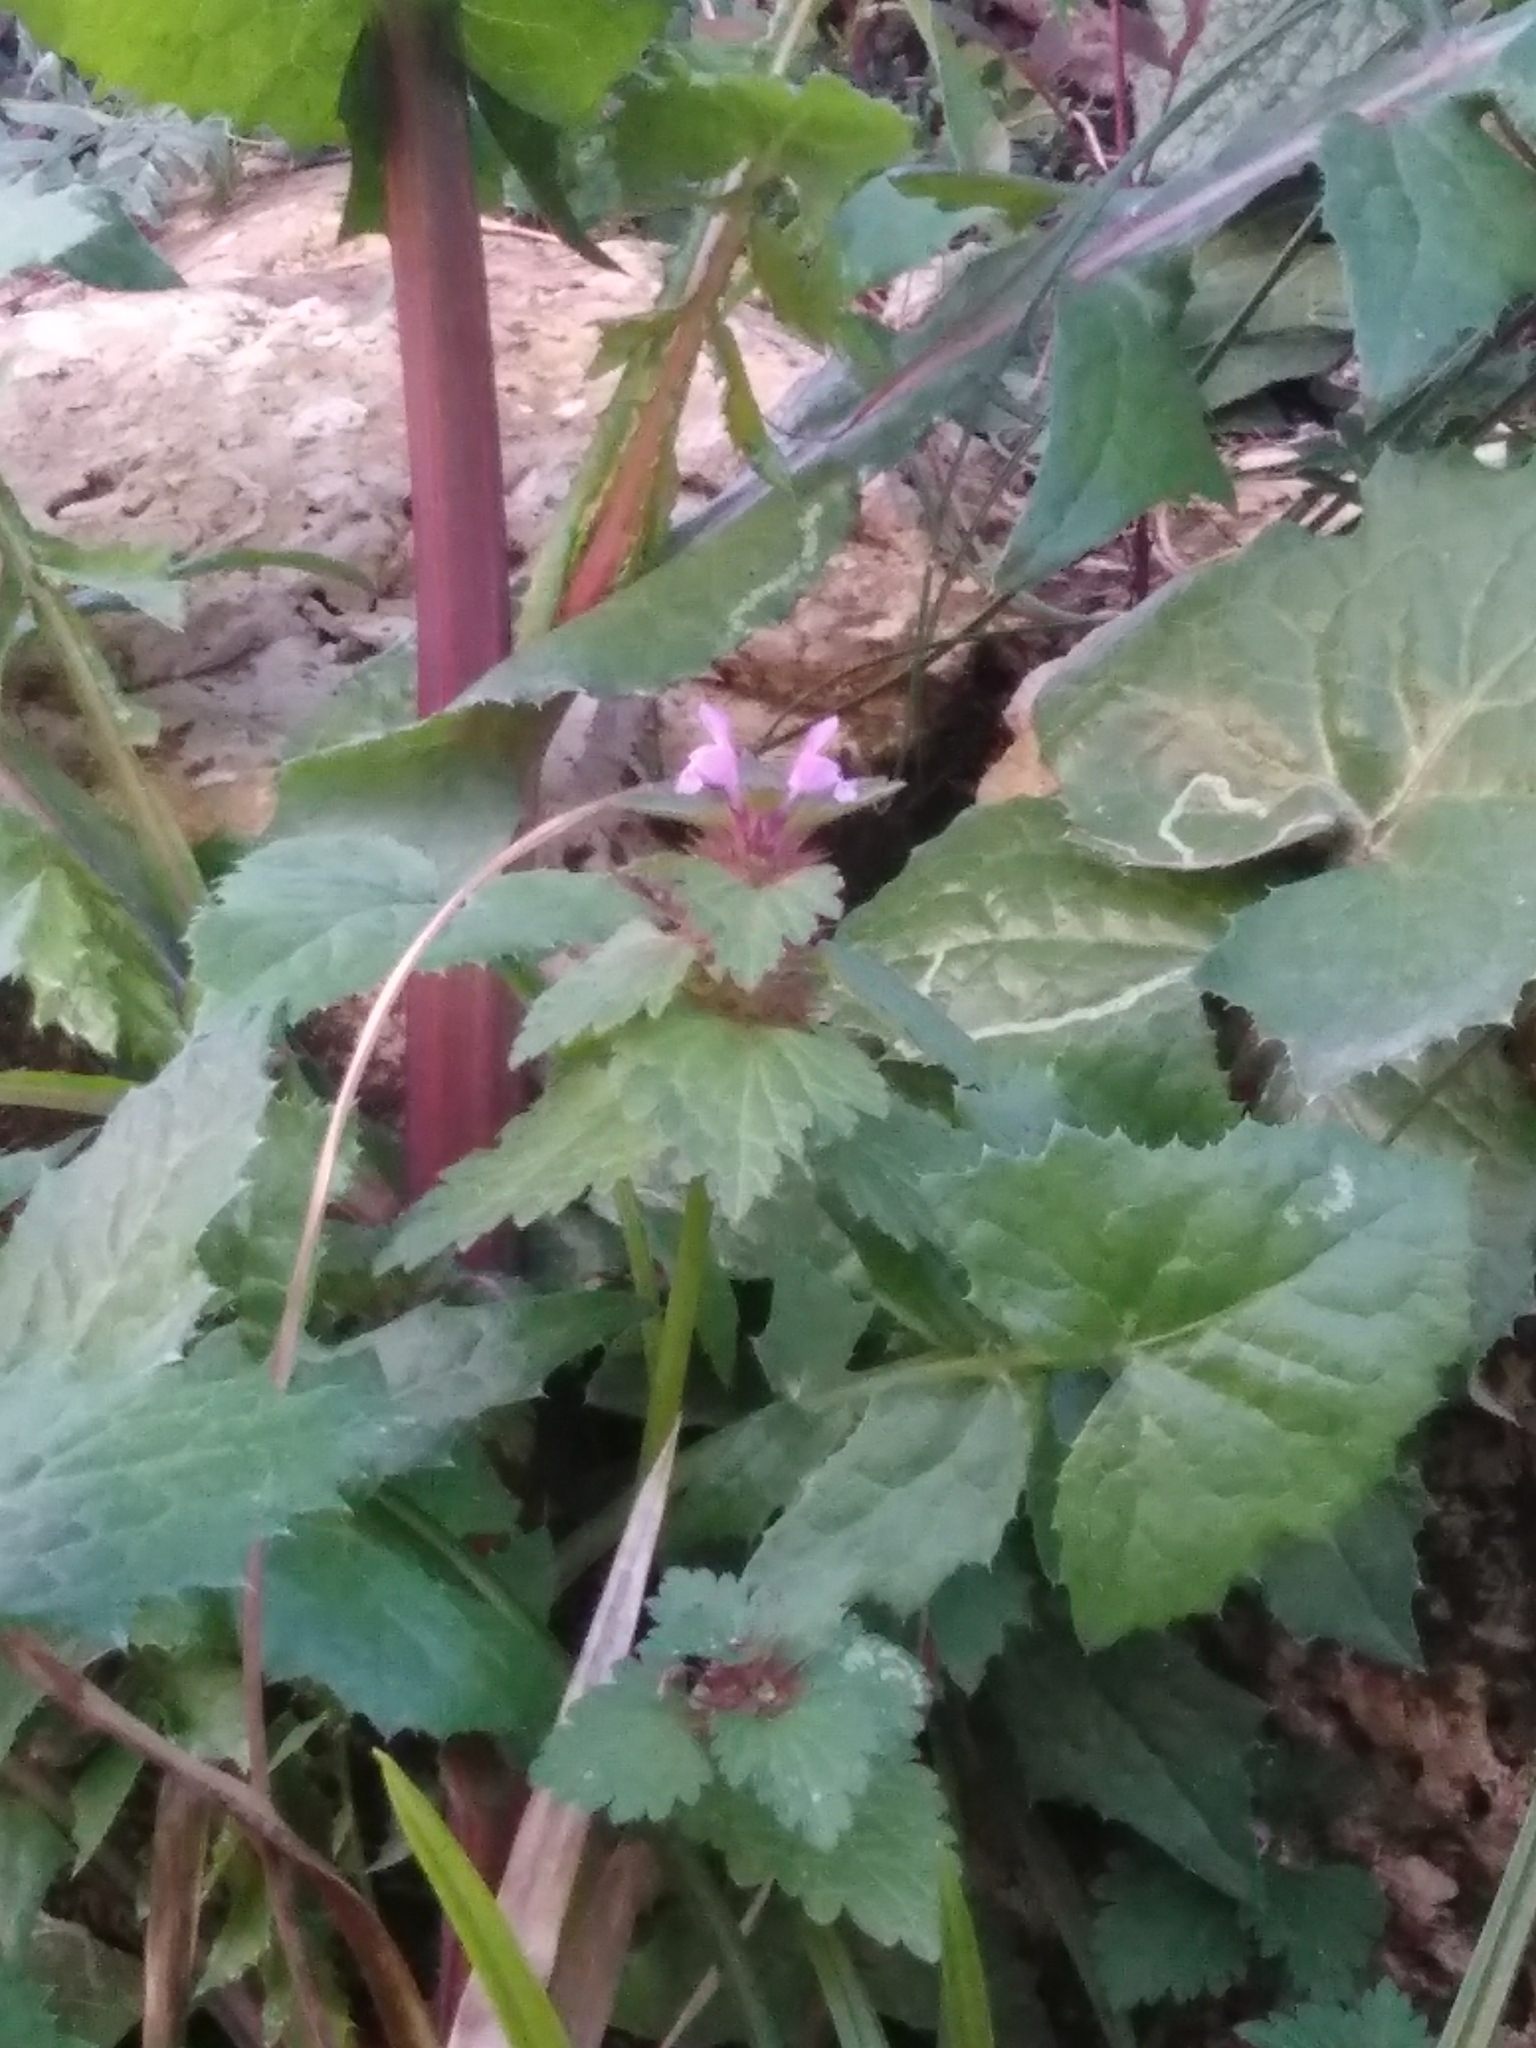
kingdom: Plantae
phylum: Tracheophyta
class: Magnoliopsida
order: Lamiales
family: Lamiaceae
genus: Lamium
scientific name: Lamium hybridum
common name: Cut-leaved dead-nettle
